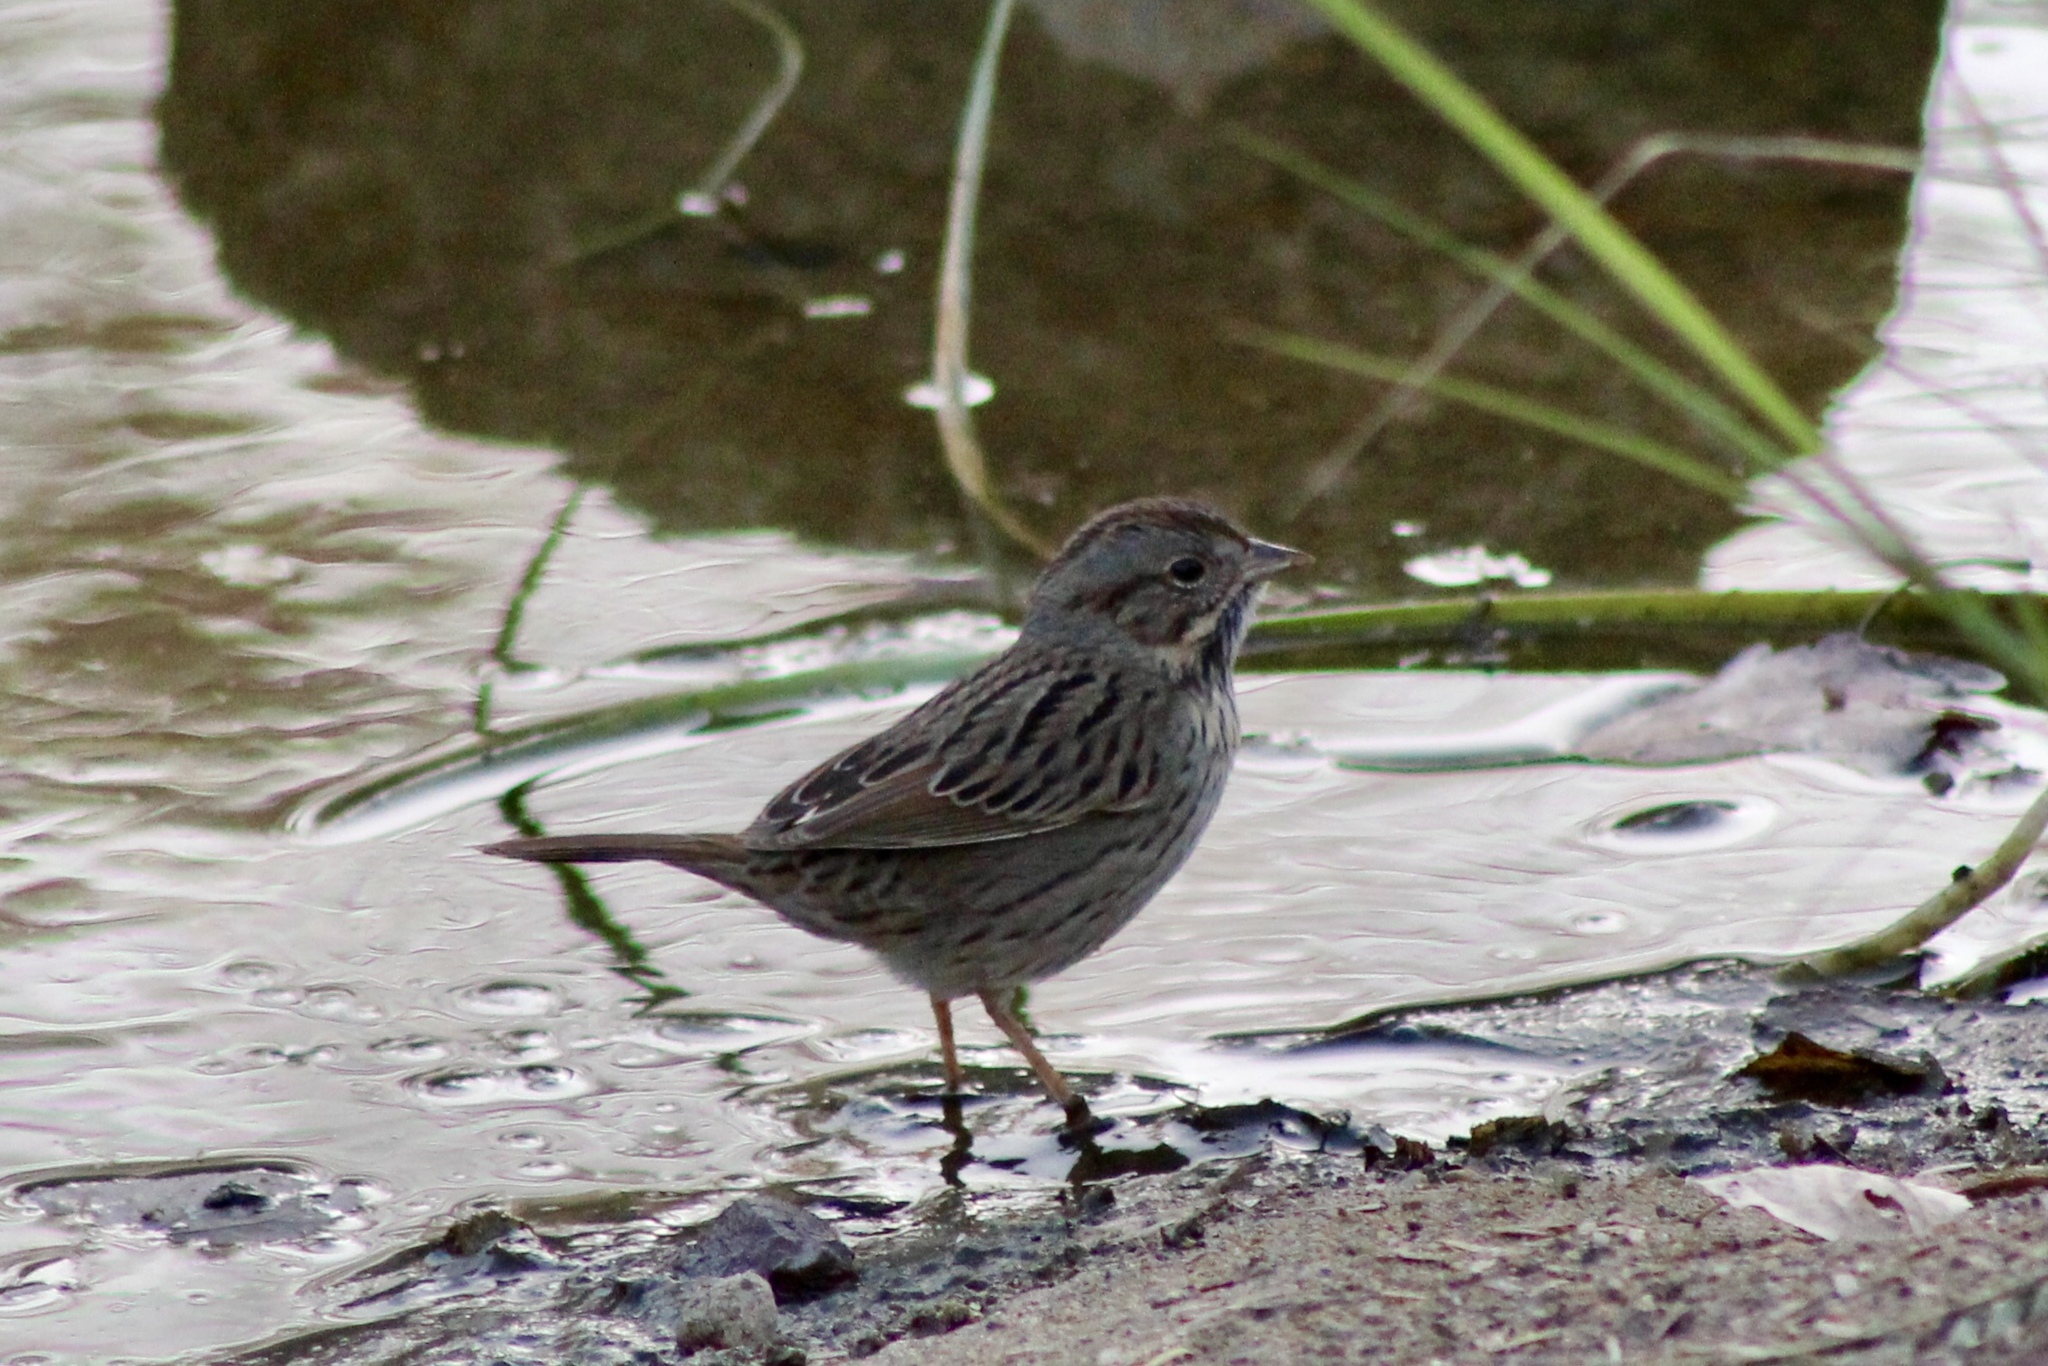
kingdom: Animalia
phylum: Chordata
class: Aves
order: Passeriformes
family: Passerellidae
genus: Melospiza
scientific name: Melospiza lincolnii
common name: Lincoln's sparrow
